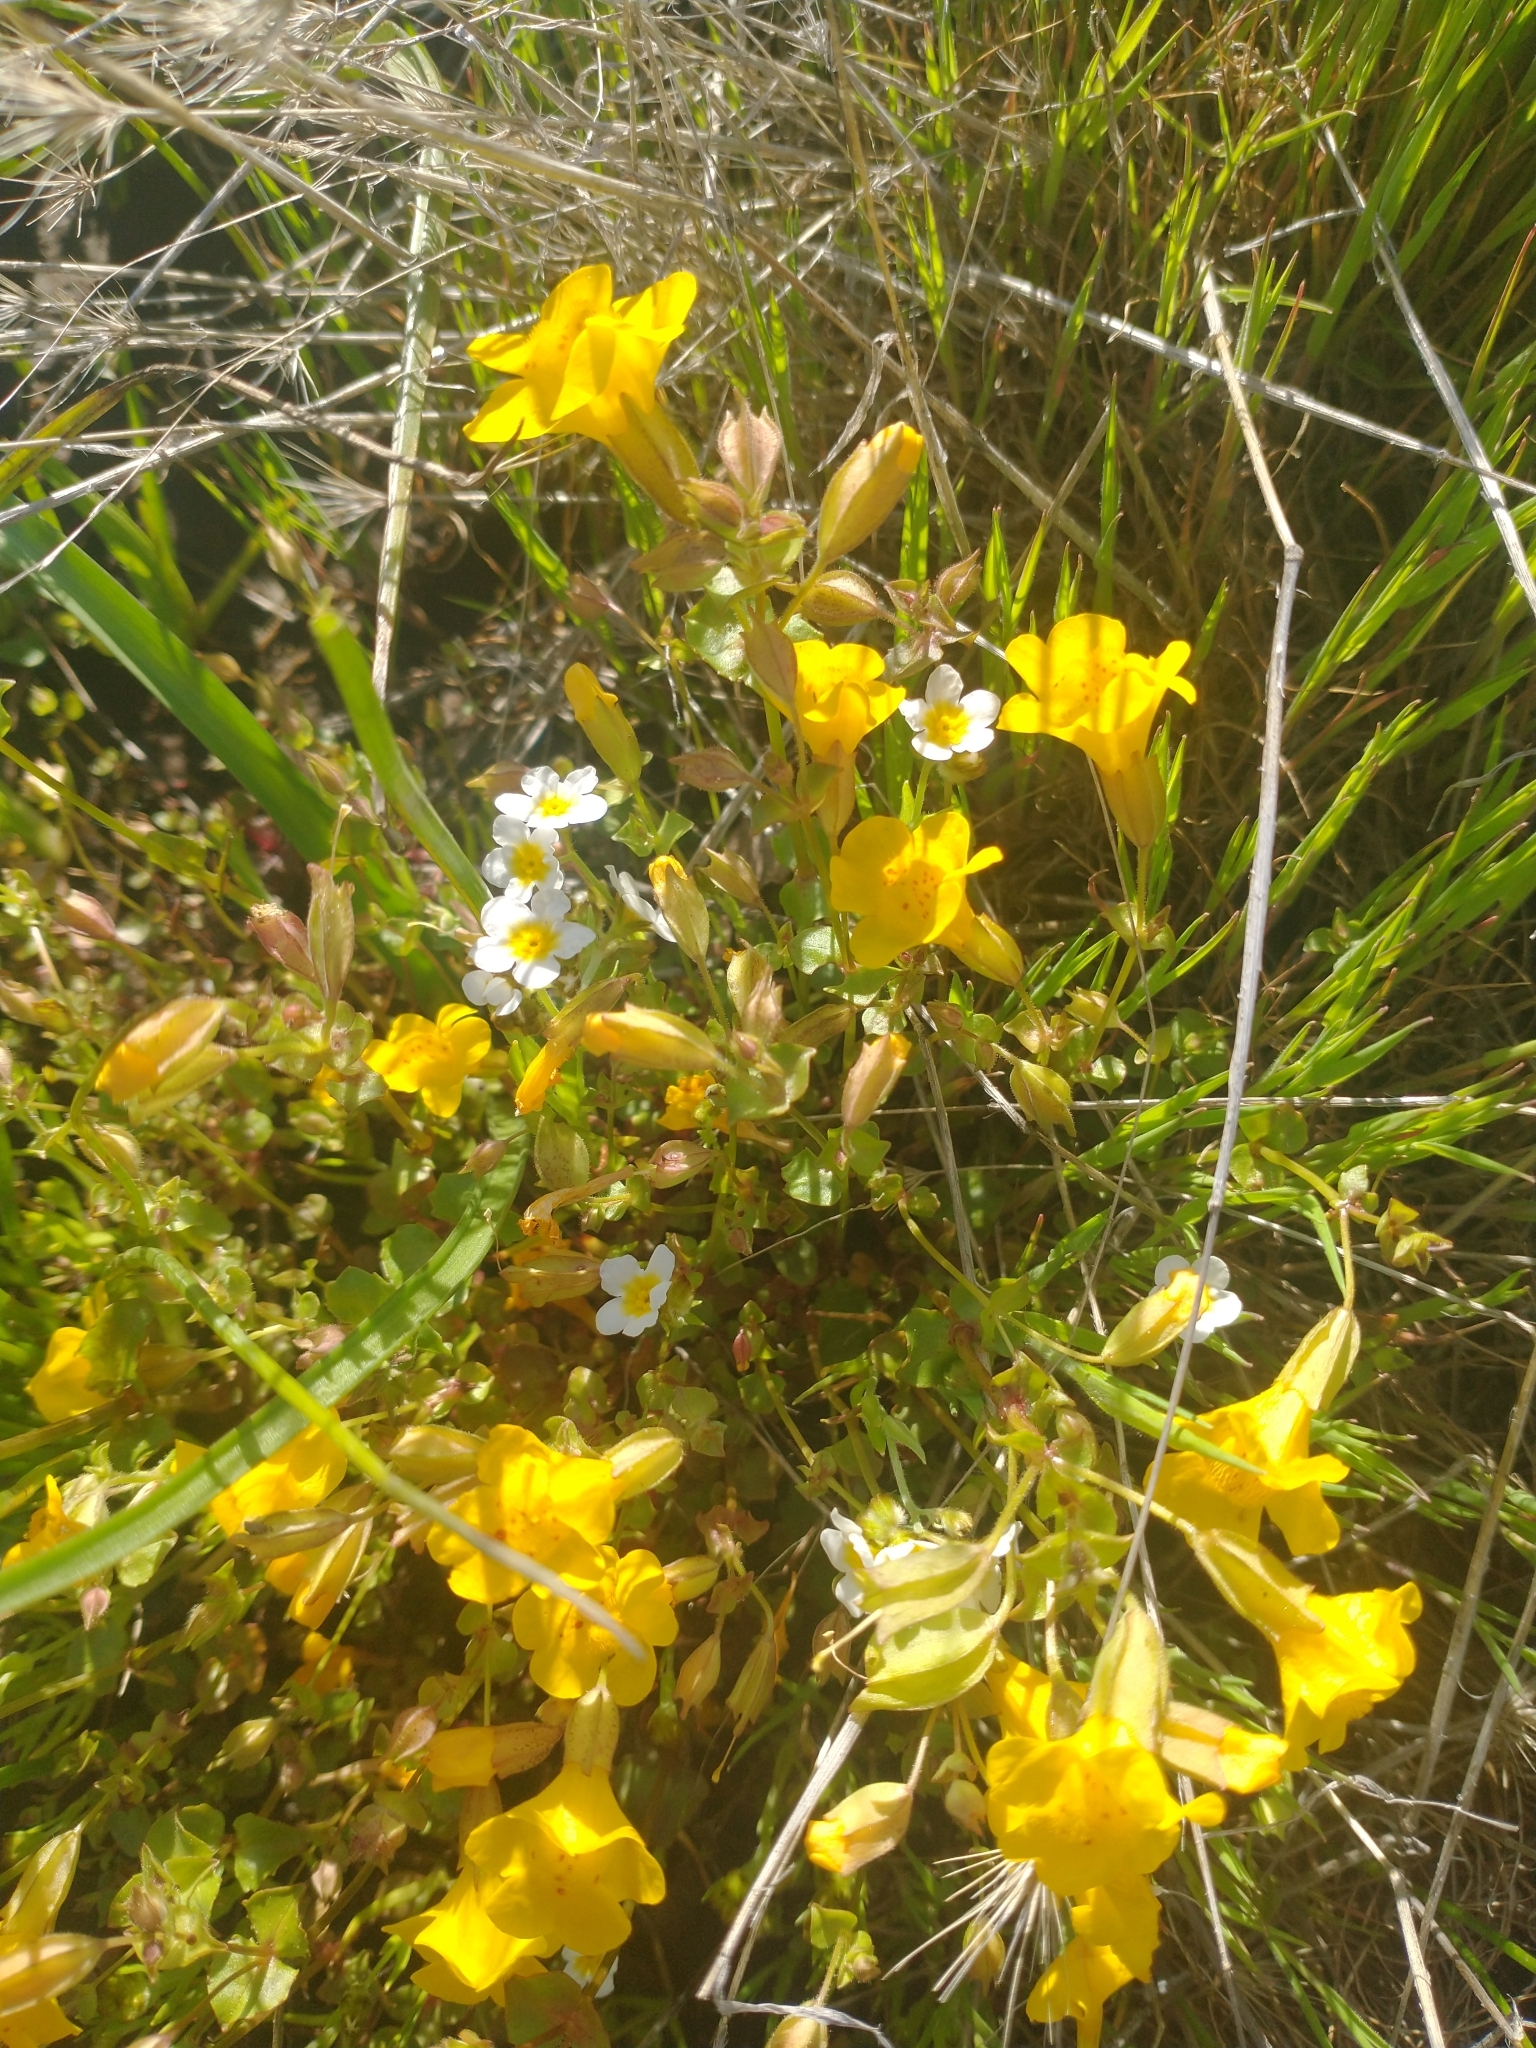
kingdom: Plantae
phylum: Tracheophyta
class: Magnoliopsida
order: Lamiales
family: Phrymaceae
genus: Erythranthe
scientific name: Erythranthe microphylla
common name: Bentham's monkeyflower
